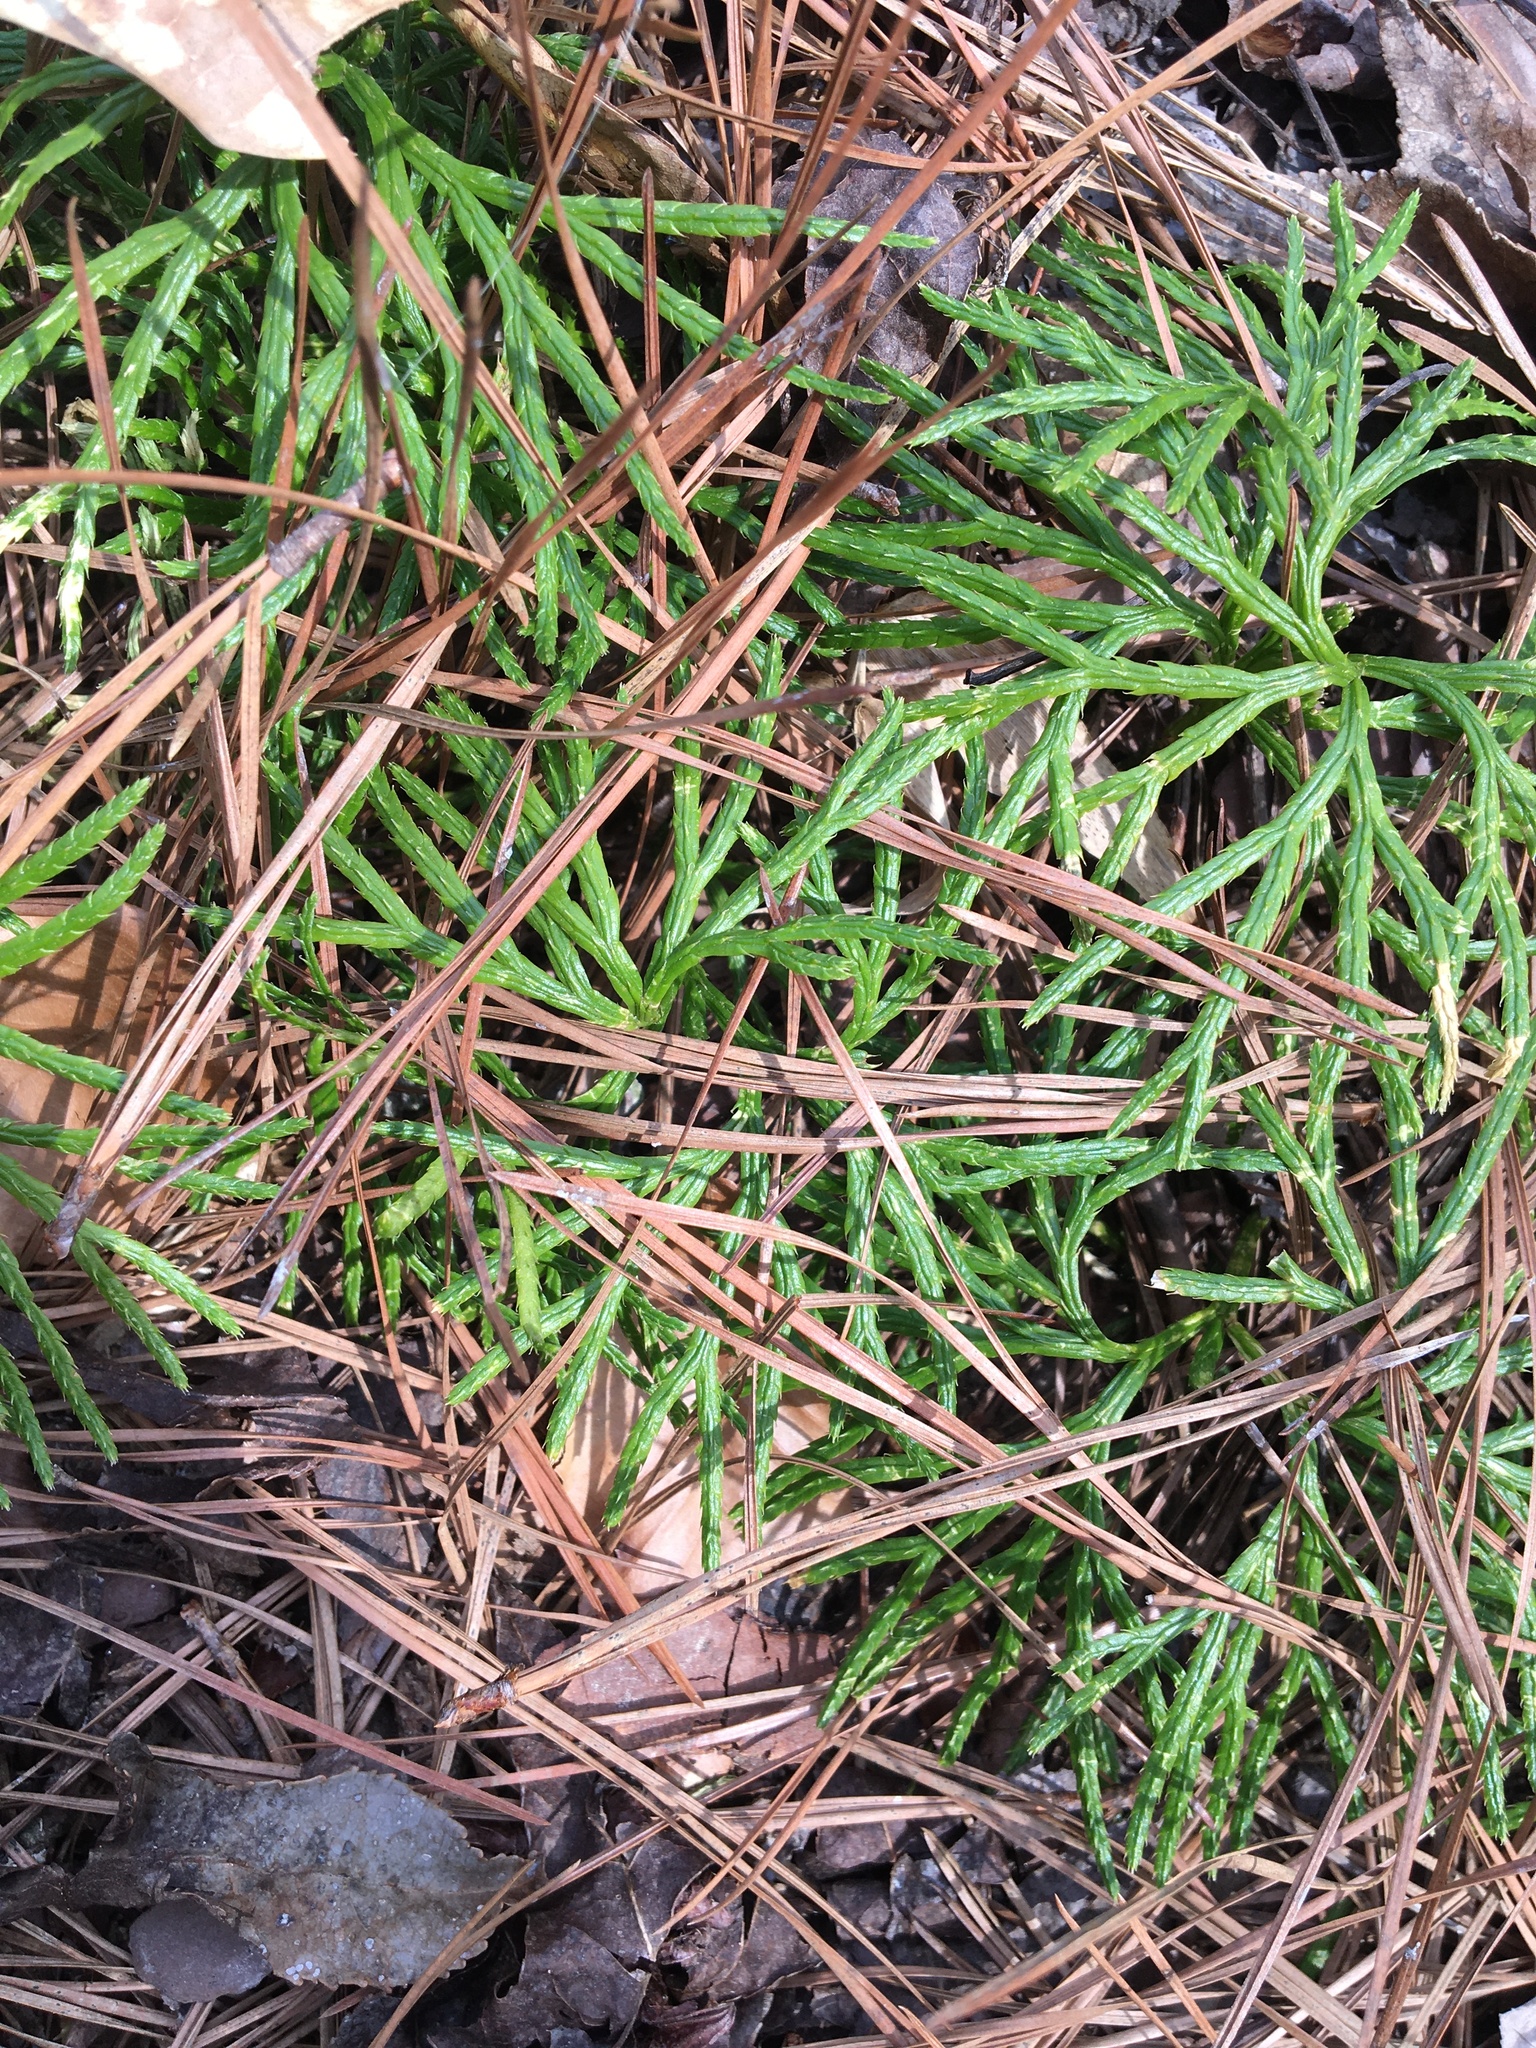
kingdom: Plantae
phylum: Tracheophyta
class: Lycopodiopsida
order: Lycopodiales
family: Lycopodiaceae
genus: Diphasiastrum
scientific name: Diphasiastrum digitatum
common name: Southern running-pine
